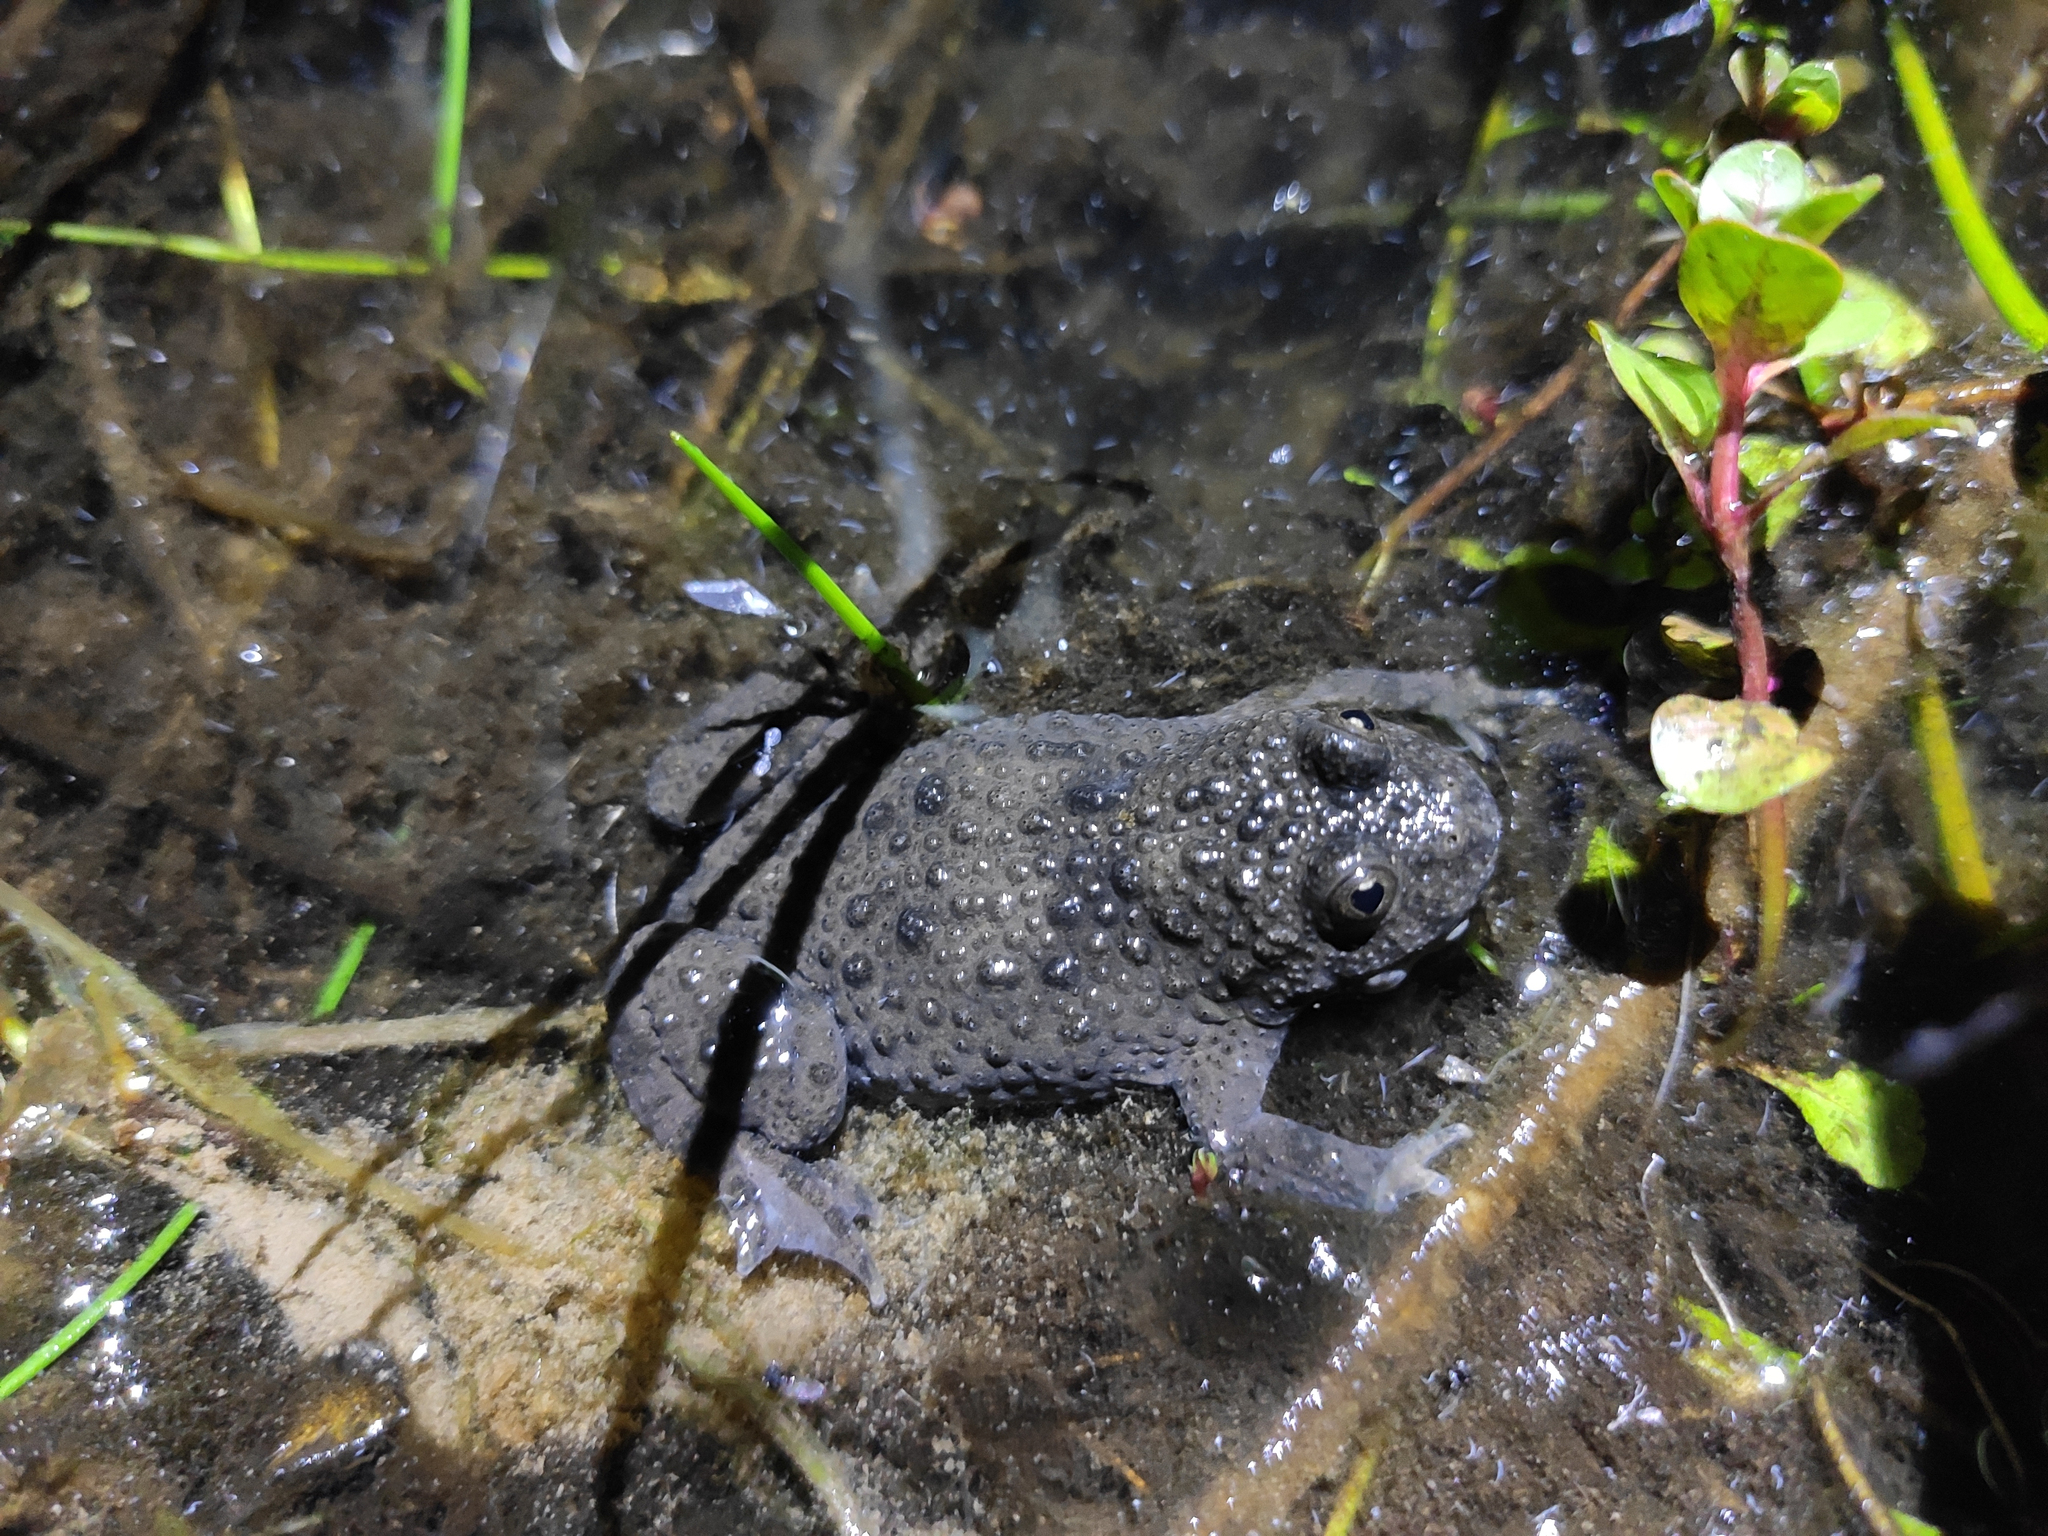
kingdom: Animalia
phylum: Chordata
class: Amphibia
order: Anura
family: Bombinatoridae
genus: Bombina
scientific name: Bombina variegata
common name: Yellow-bellied toad
